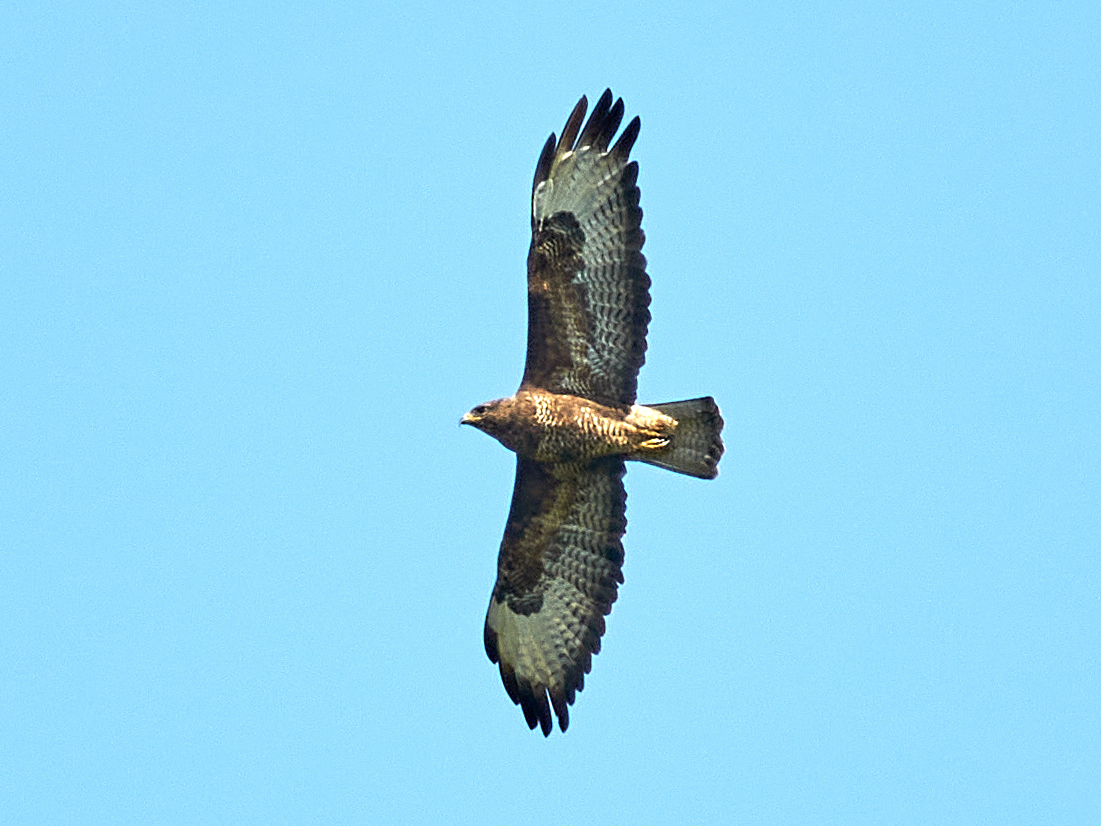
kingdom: Animalia
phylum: Chordata
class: Aves
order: Accipitriformes
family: Accipitridae
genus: Buteo
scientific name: Buteo buteo
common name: Common buzzard
